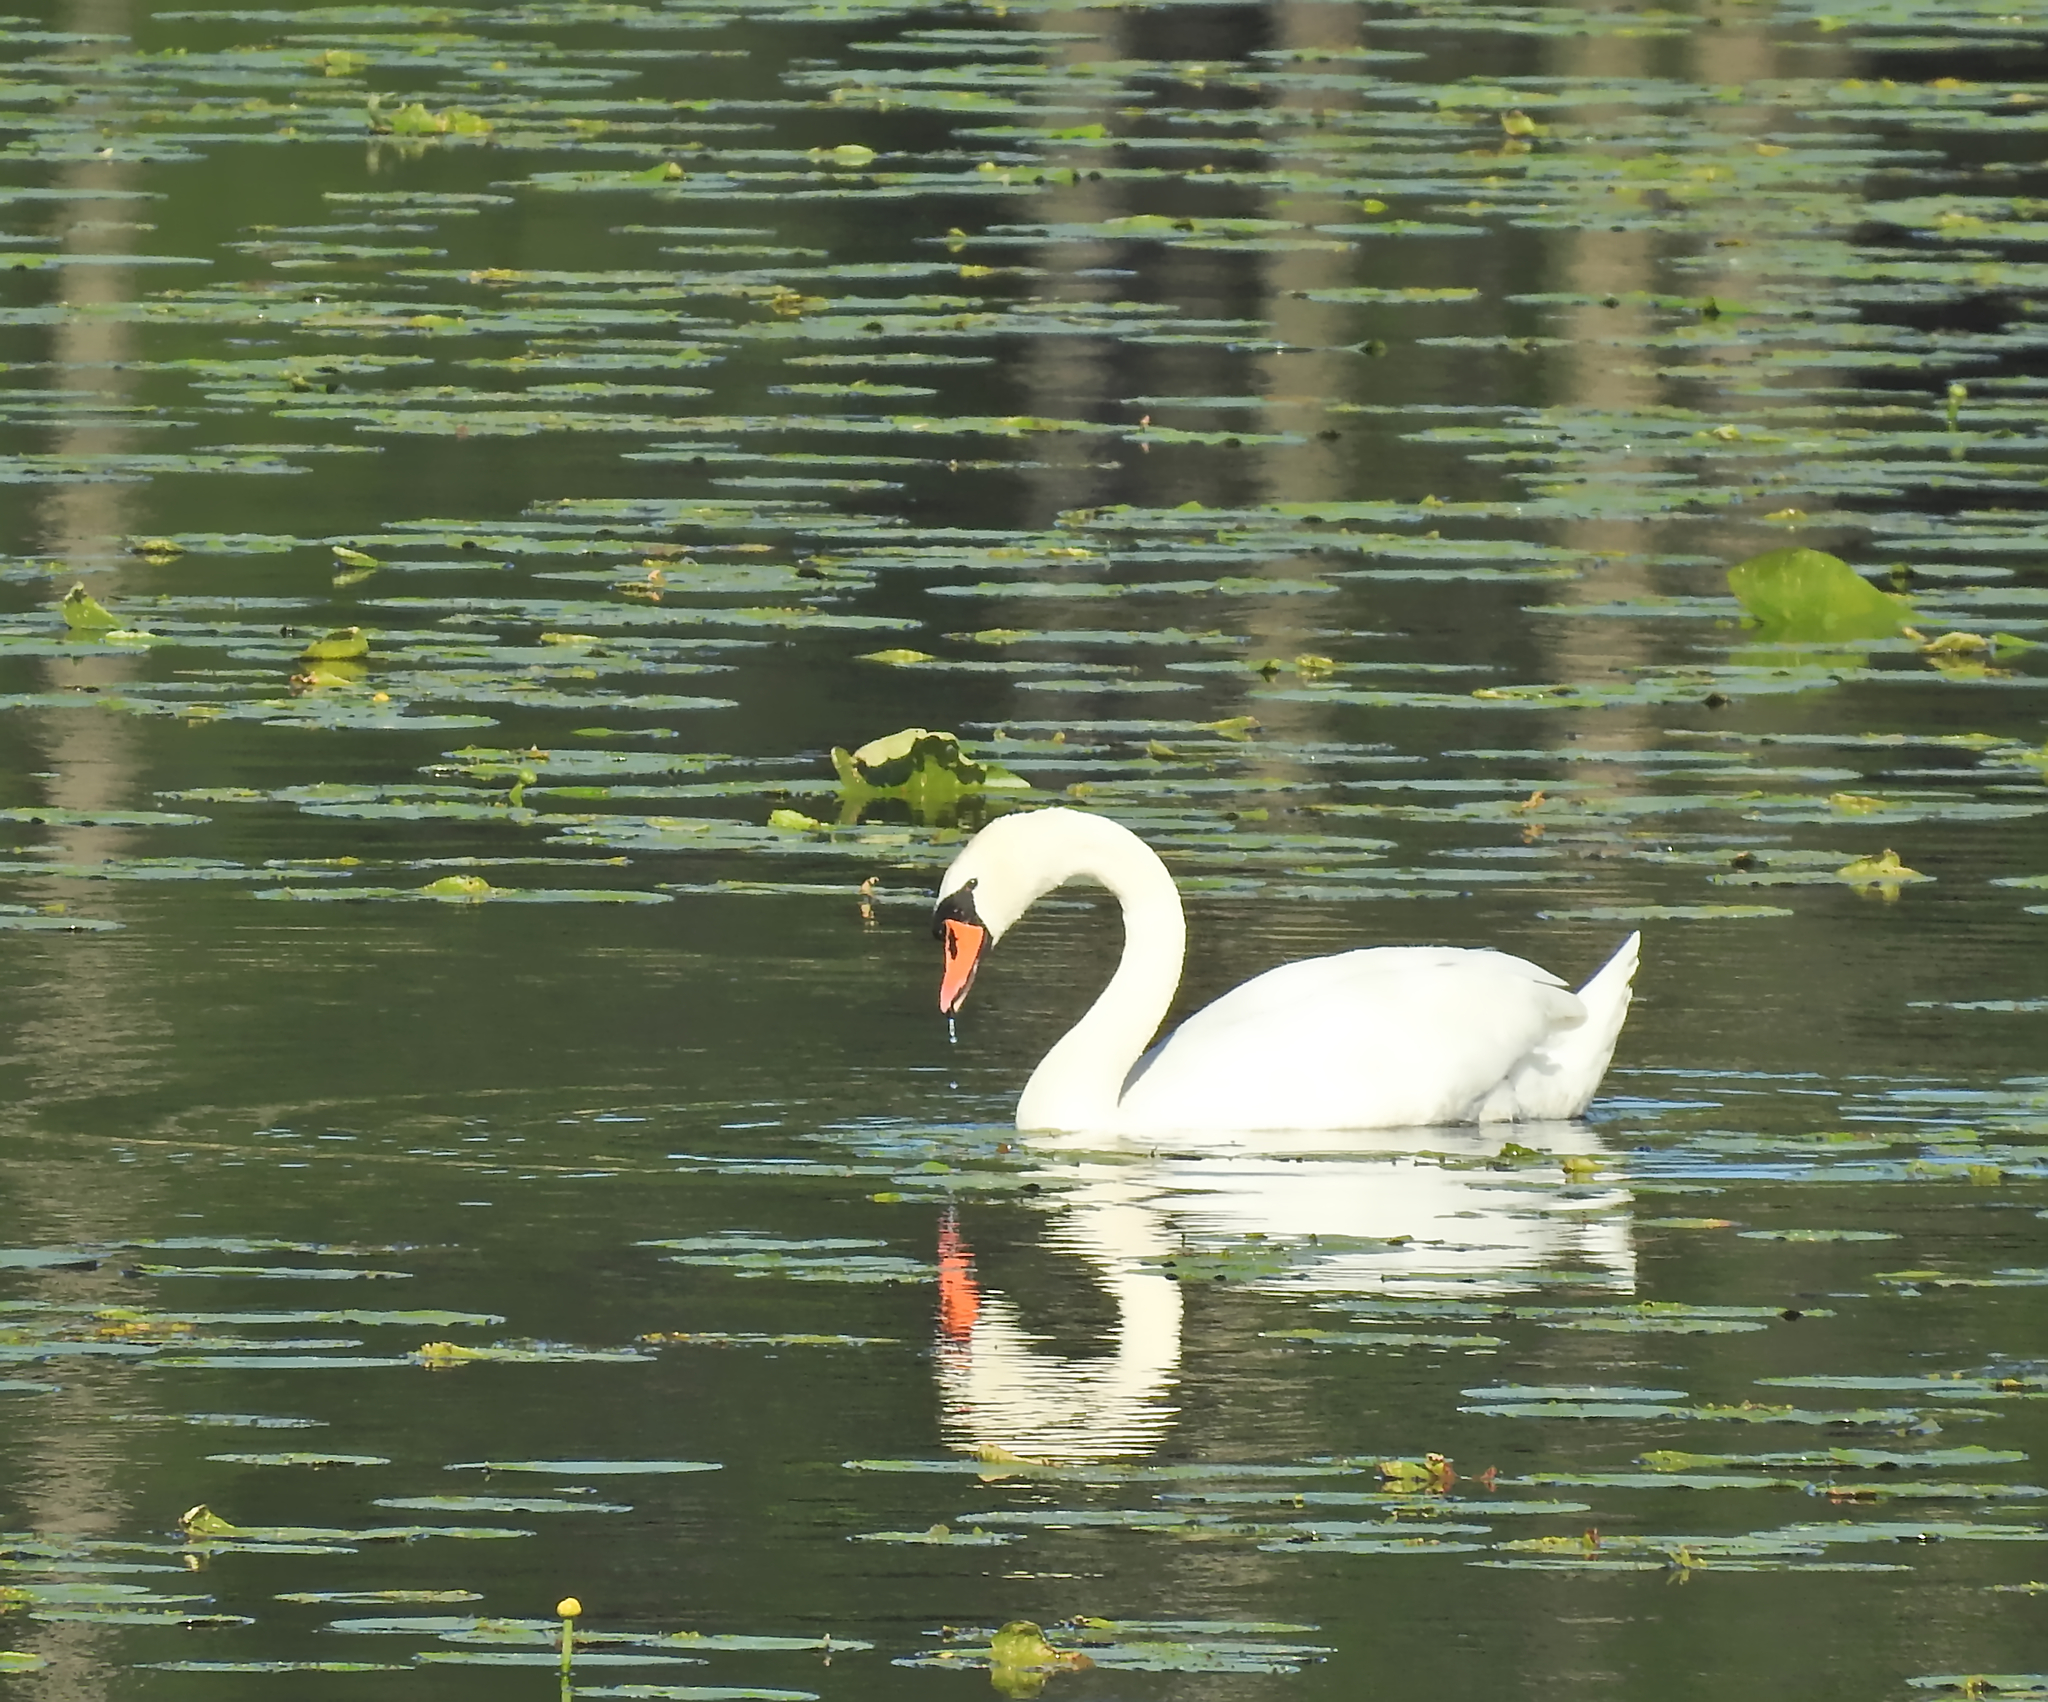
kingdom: Animalia
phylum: Chordata
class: Aves
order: Anseriformes
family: Anatidae
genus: Cygnus
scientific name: Cygnus olor
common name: Mute swan
